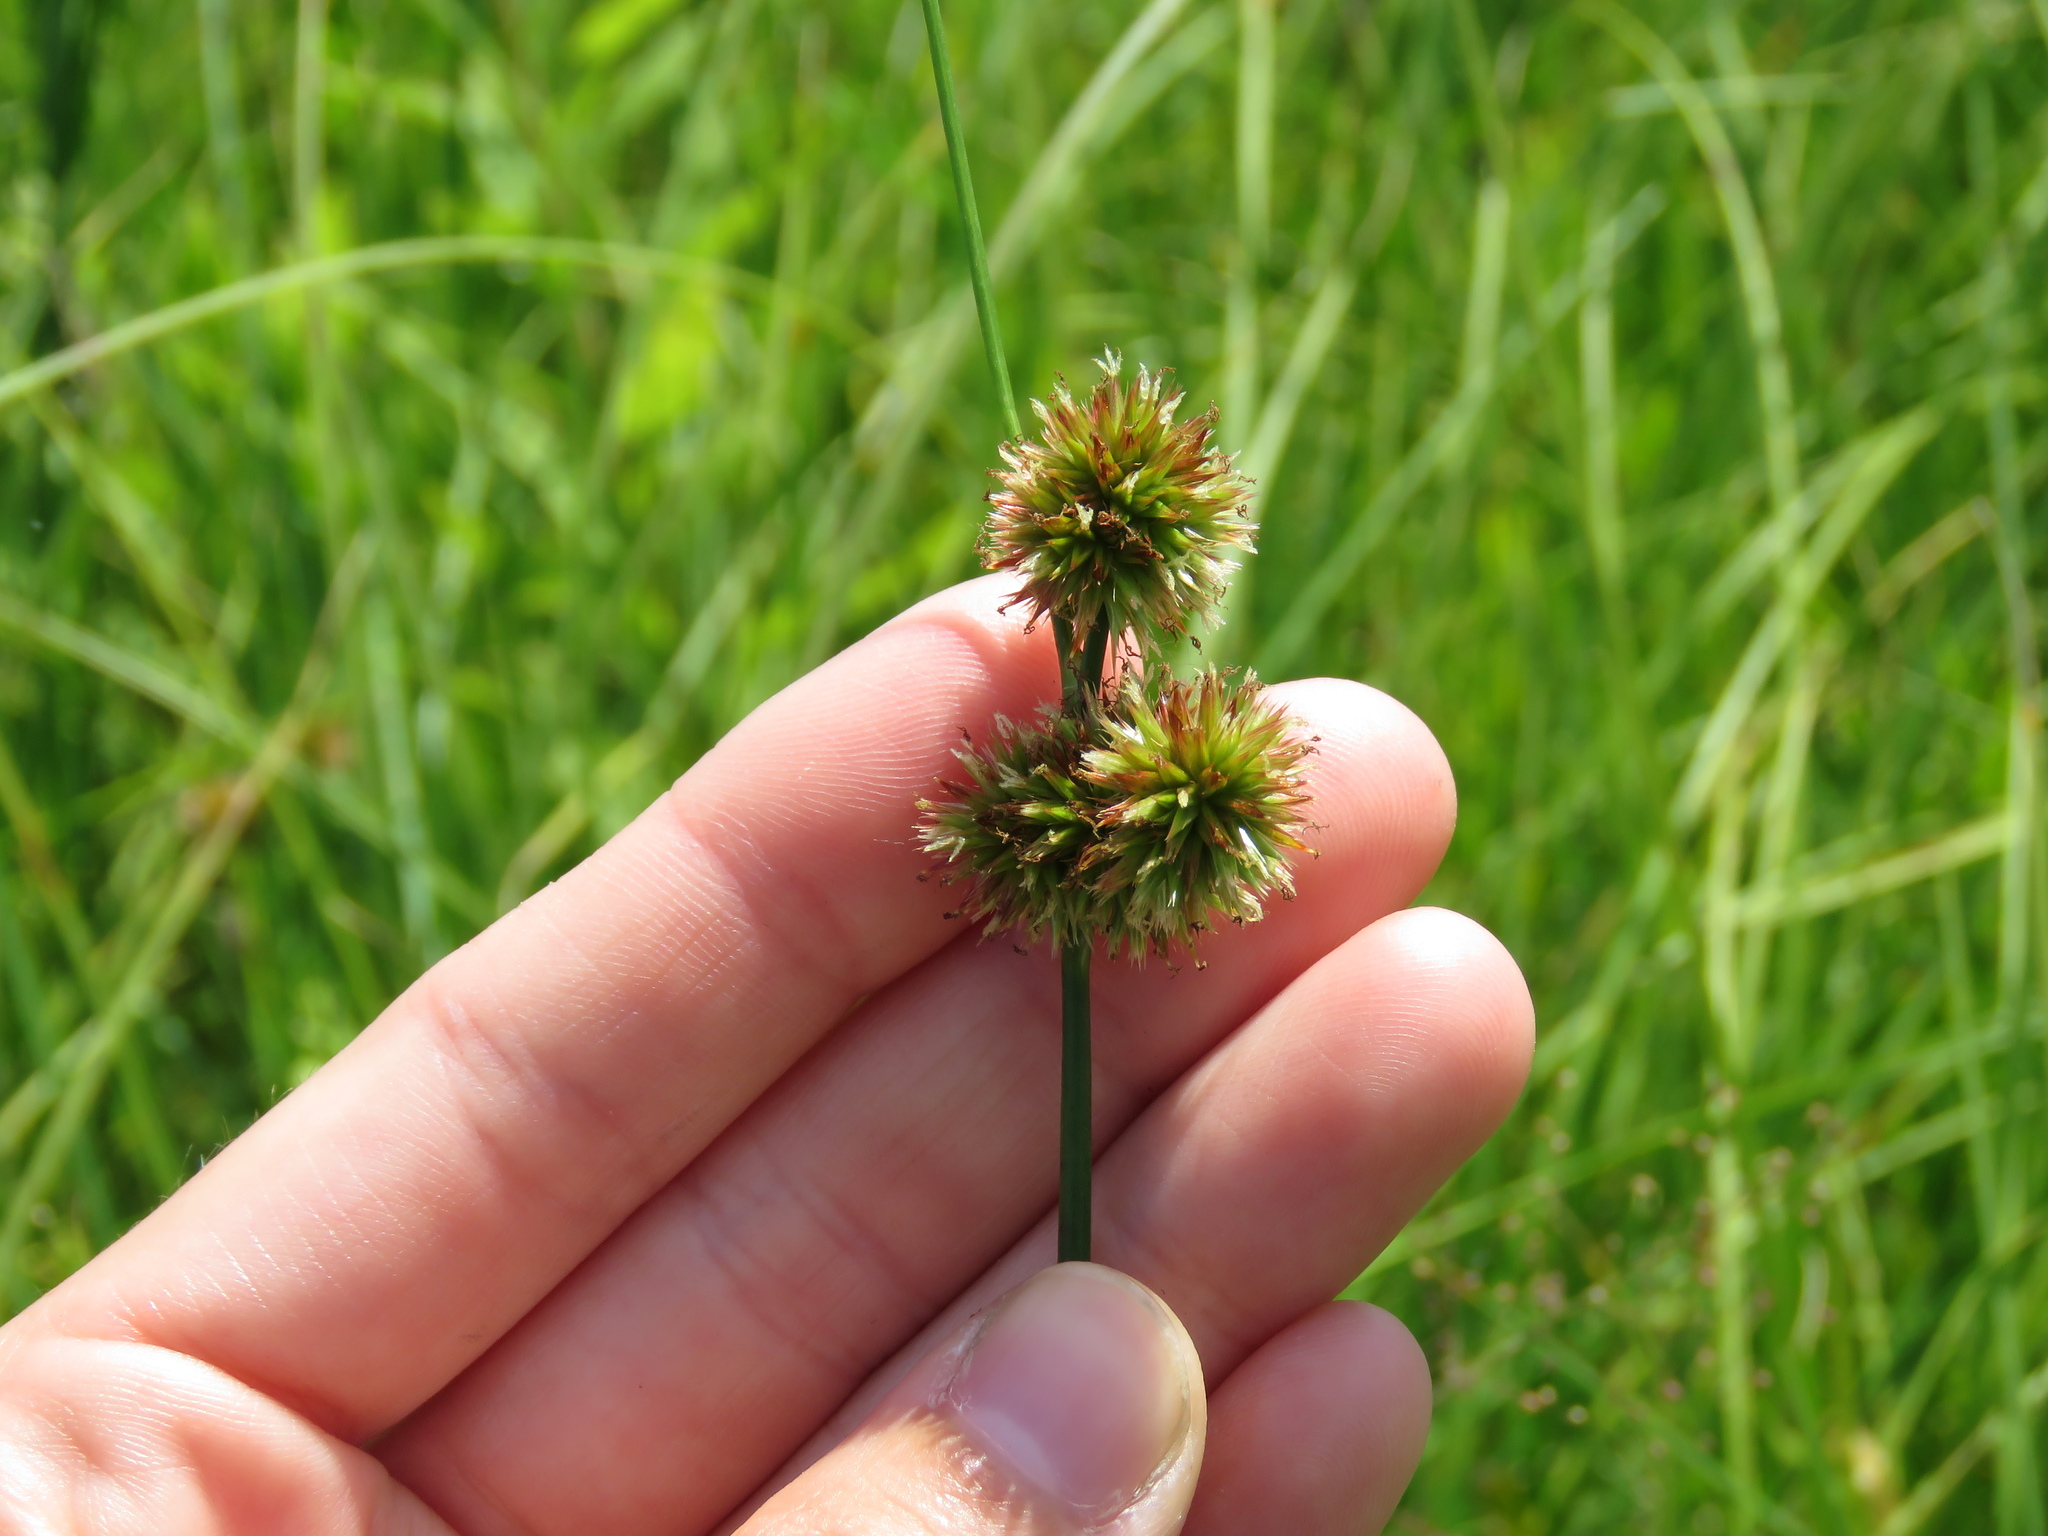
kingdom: Plantae
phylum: Tracheophyta
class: Liliopsida
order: Poales
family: Juncaceae
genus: Juncus
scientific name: Juncus torreyi
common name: Torrey's rush
